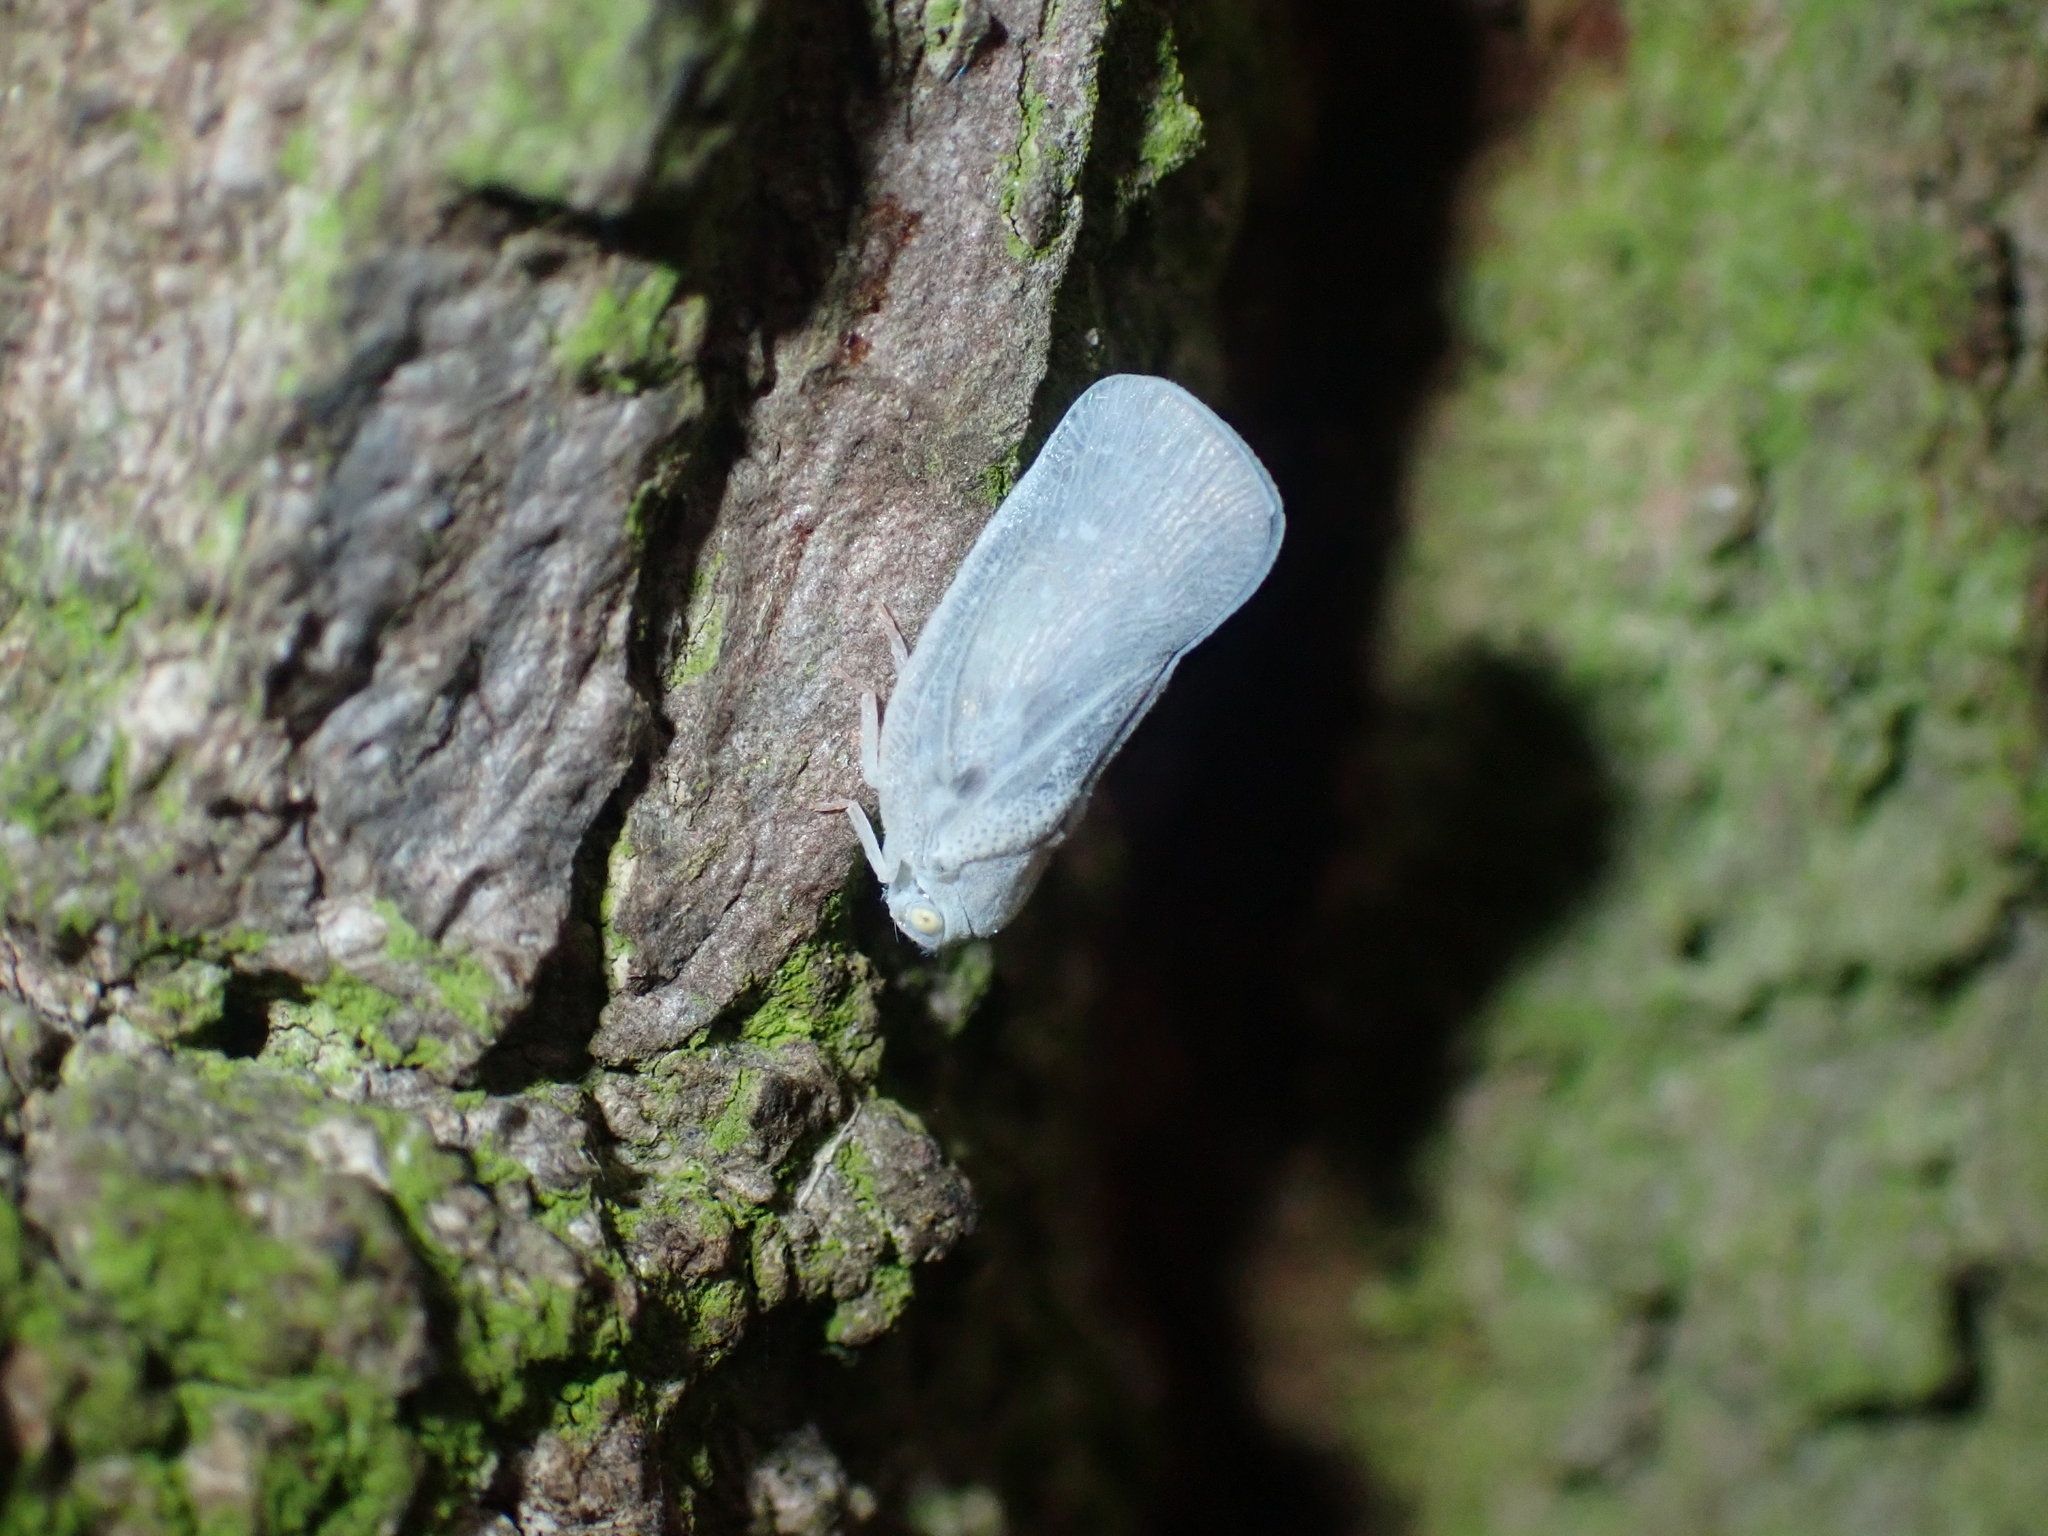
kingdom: Animalia
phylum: Arthropoda
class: Insecta
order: Hemiptera
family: Flatidae
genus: Metcalfa
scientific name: Metcalfa pruinosa
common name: Citrus flatid planthopper
